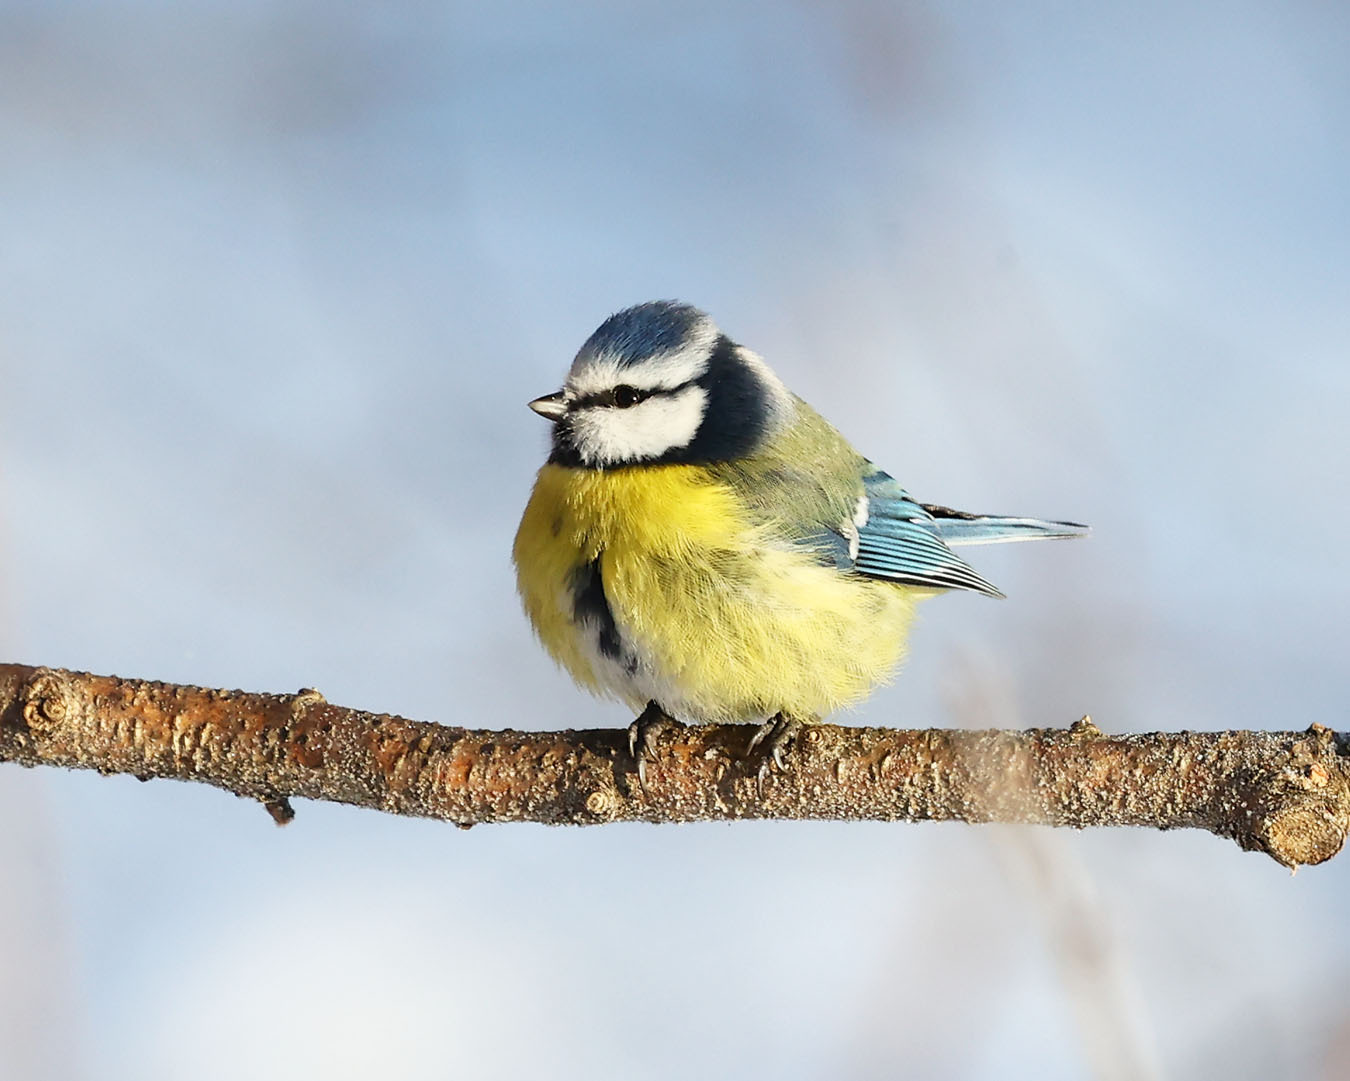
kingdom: Animalia
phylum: Chordata
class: Aves
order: Passeriformes
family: Paridae
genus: Cyanistes
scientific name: Cyanistes caeruleus
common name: Eurasian blue tit
